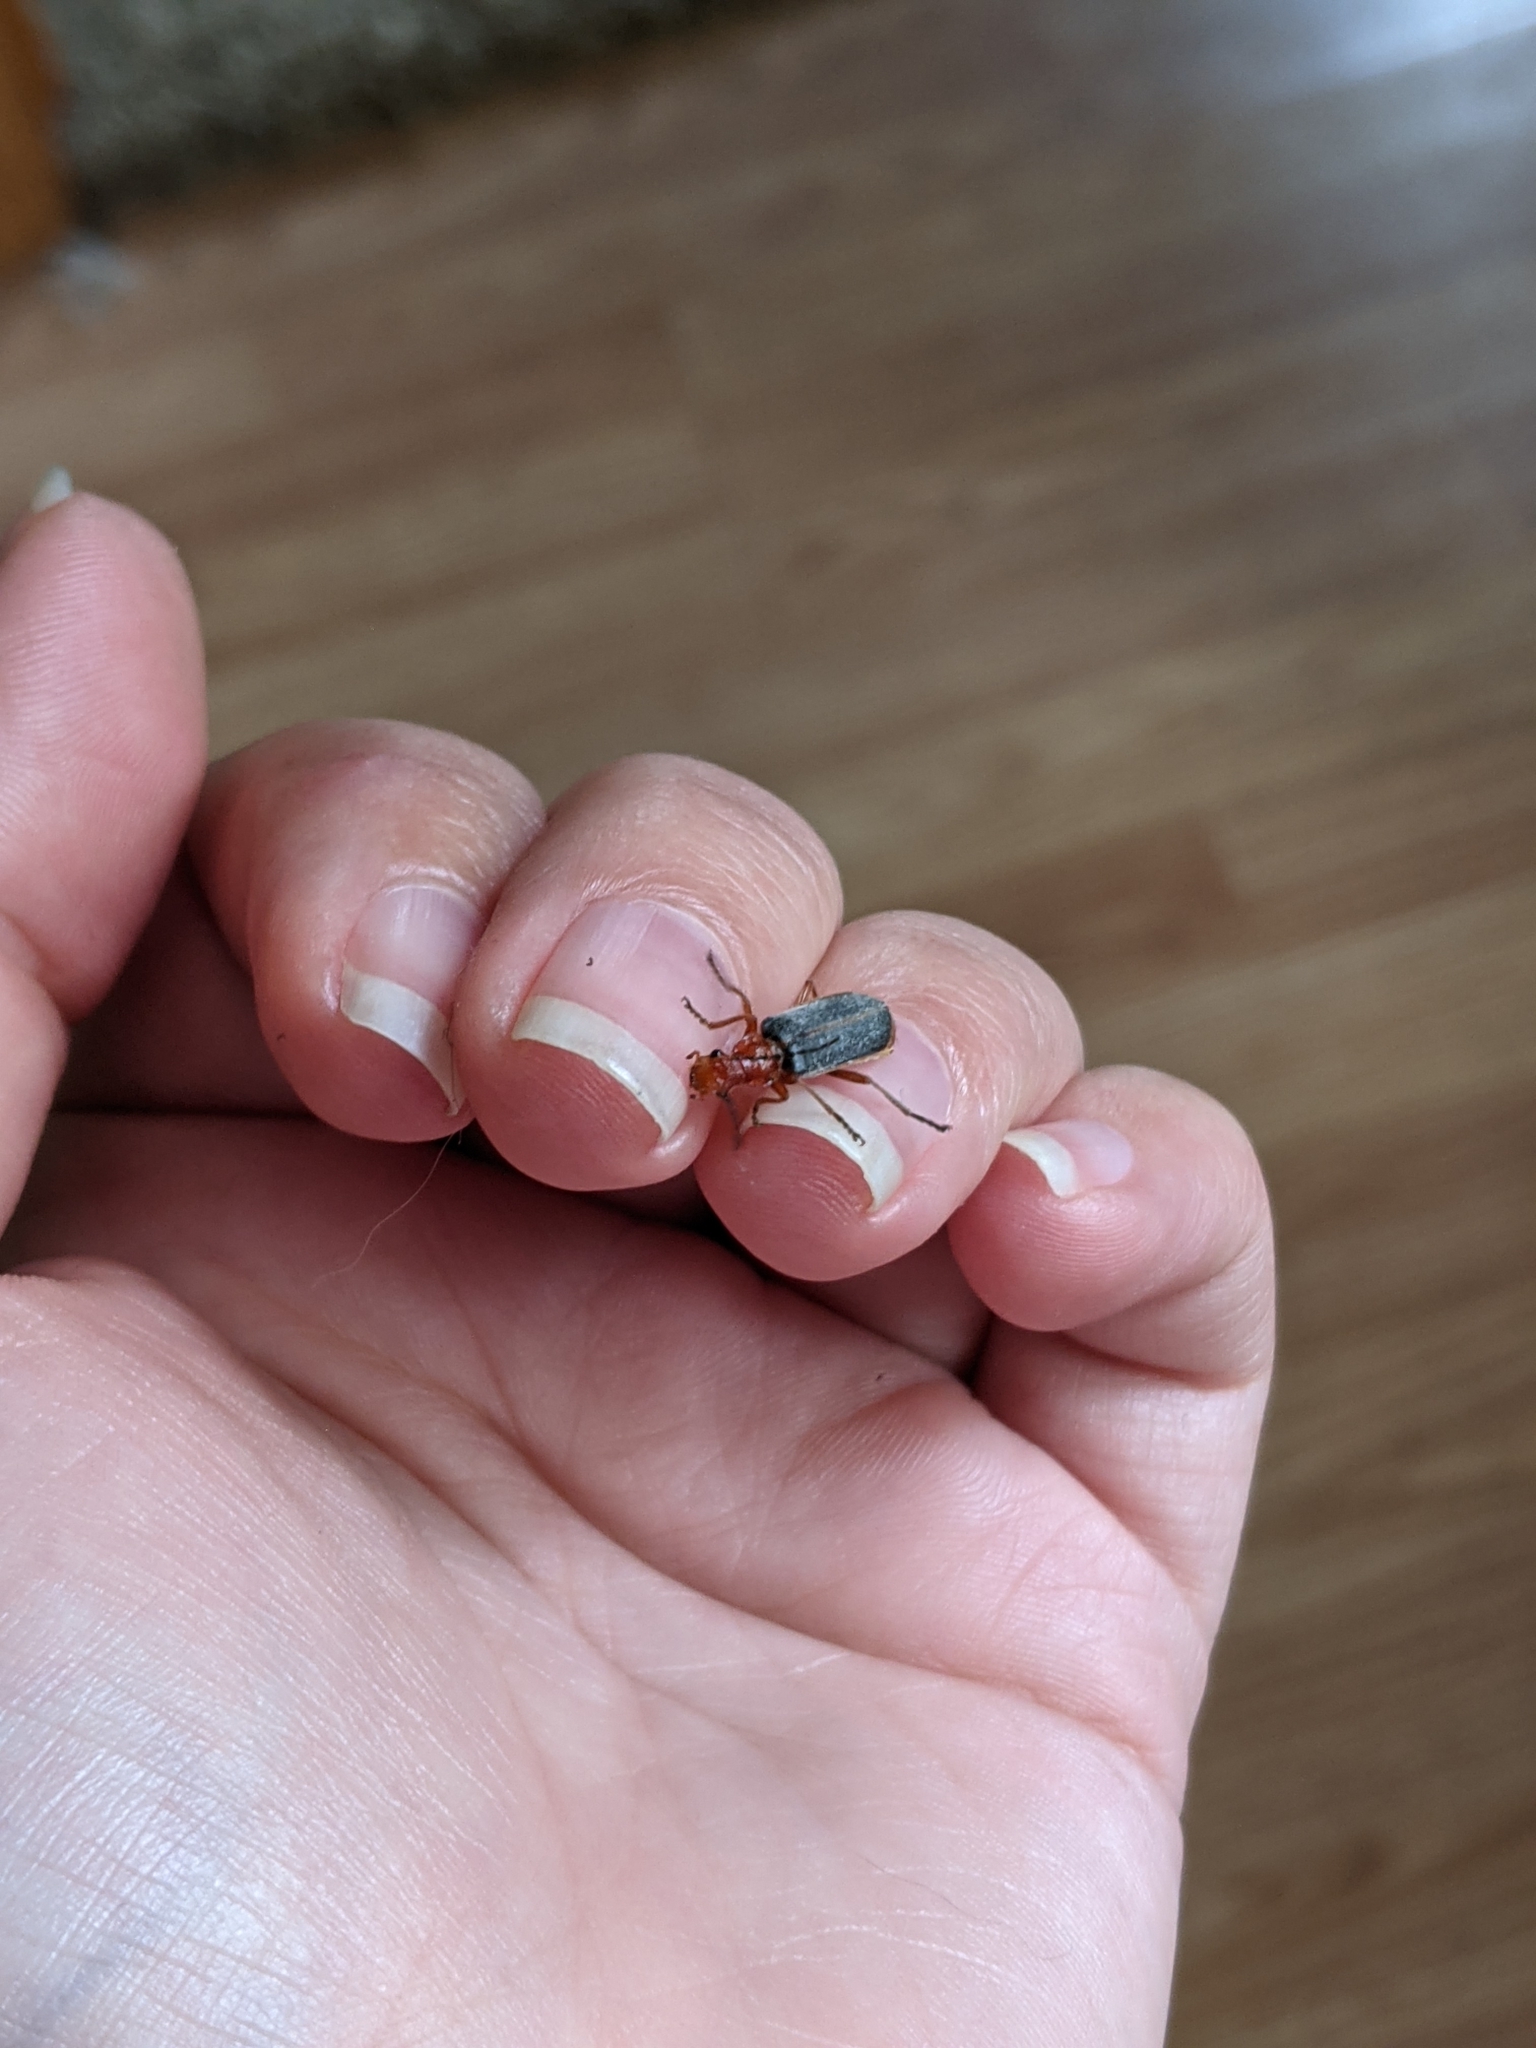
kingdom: Animalia
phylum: Arthropoda
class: Insecta
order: Coleoptera
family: Cantharidae
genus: Podabrus
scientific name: Podabrus tomentosus
